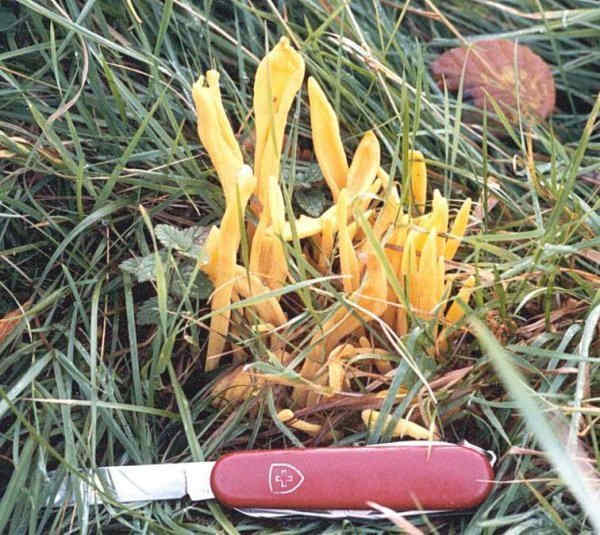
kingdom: Fungi
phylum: Basidiomycota
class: Agaricomycetes
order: Agaricales
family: Clavariaceae
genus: Clavulinopsis
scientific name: Clavulinopsis fusiformis
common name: Golden spindles
